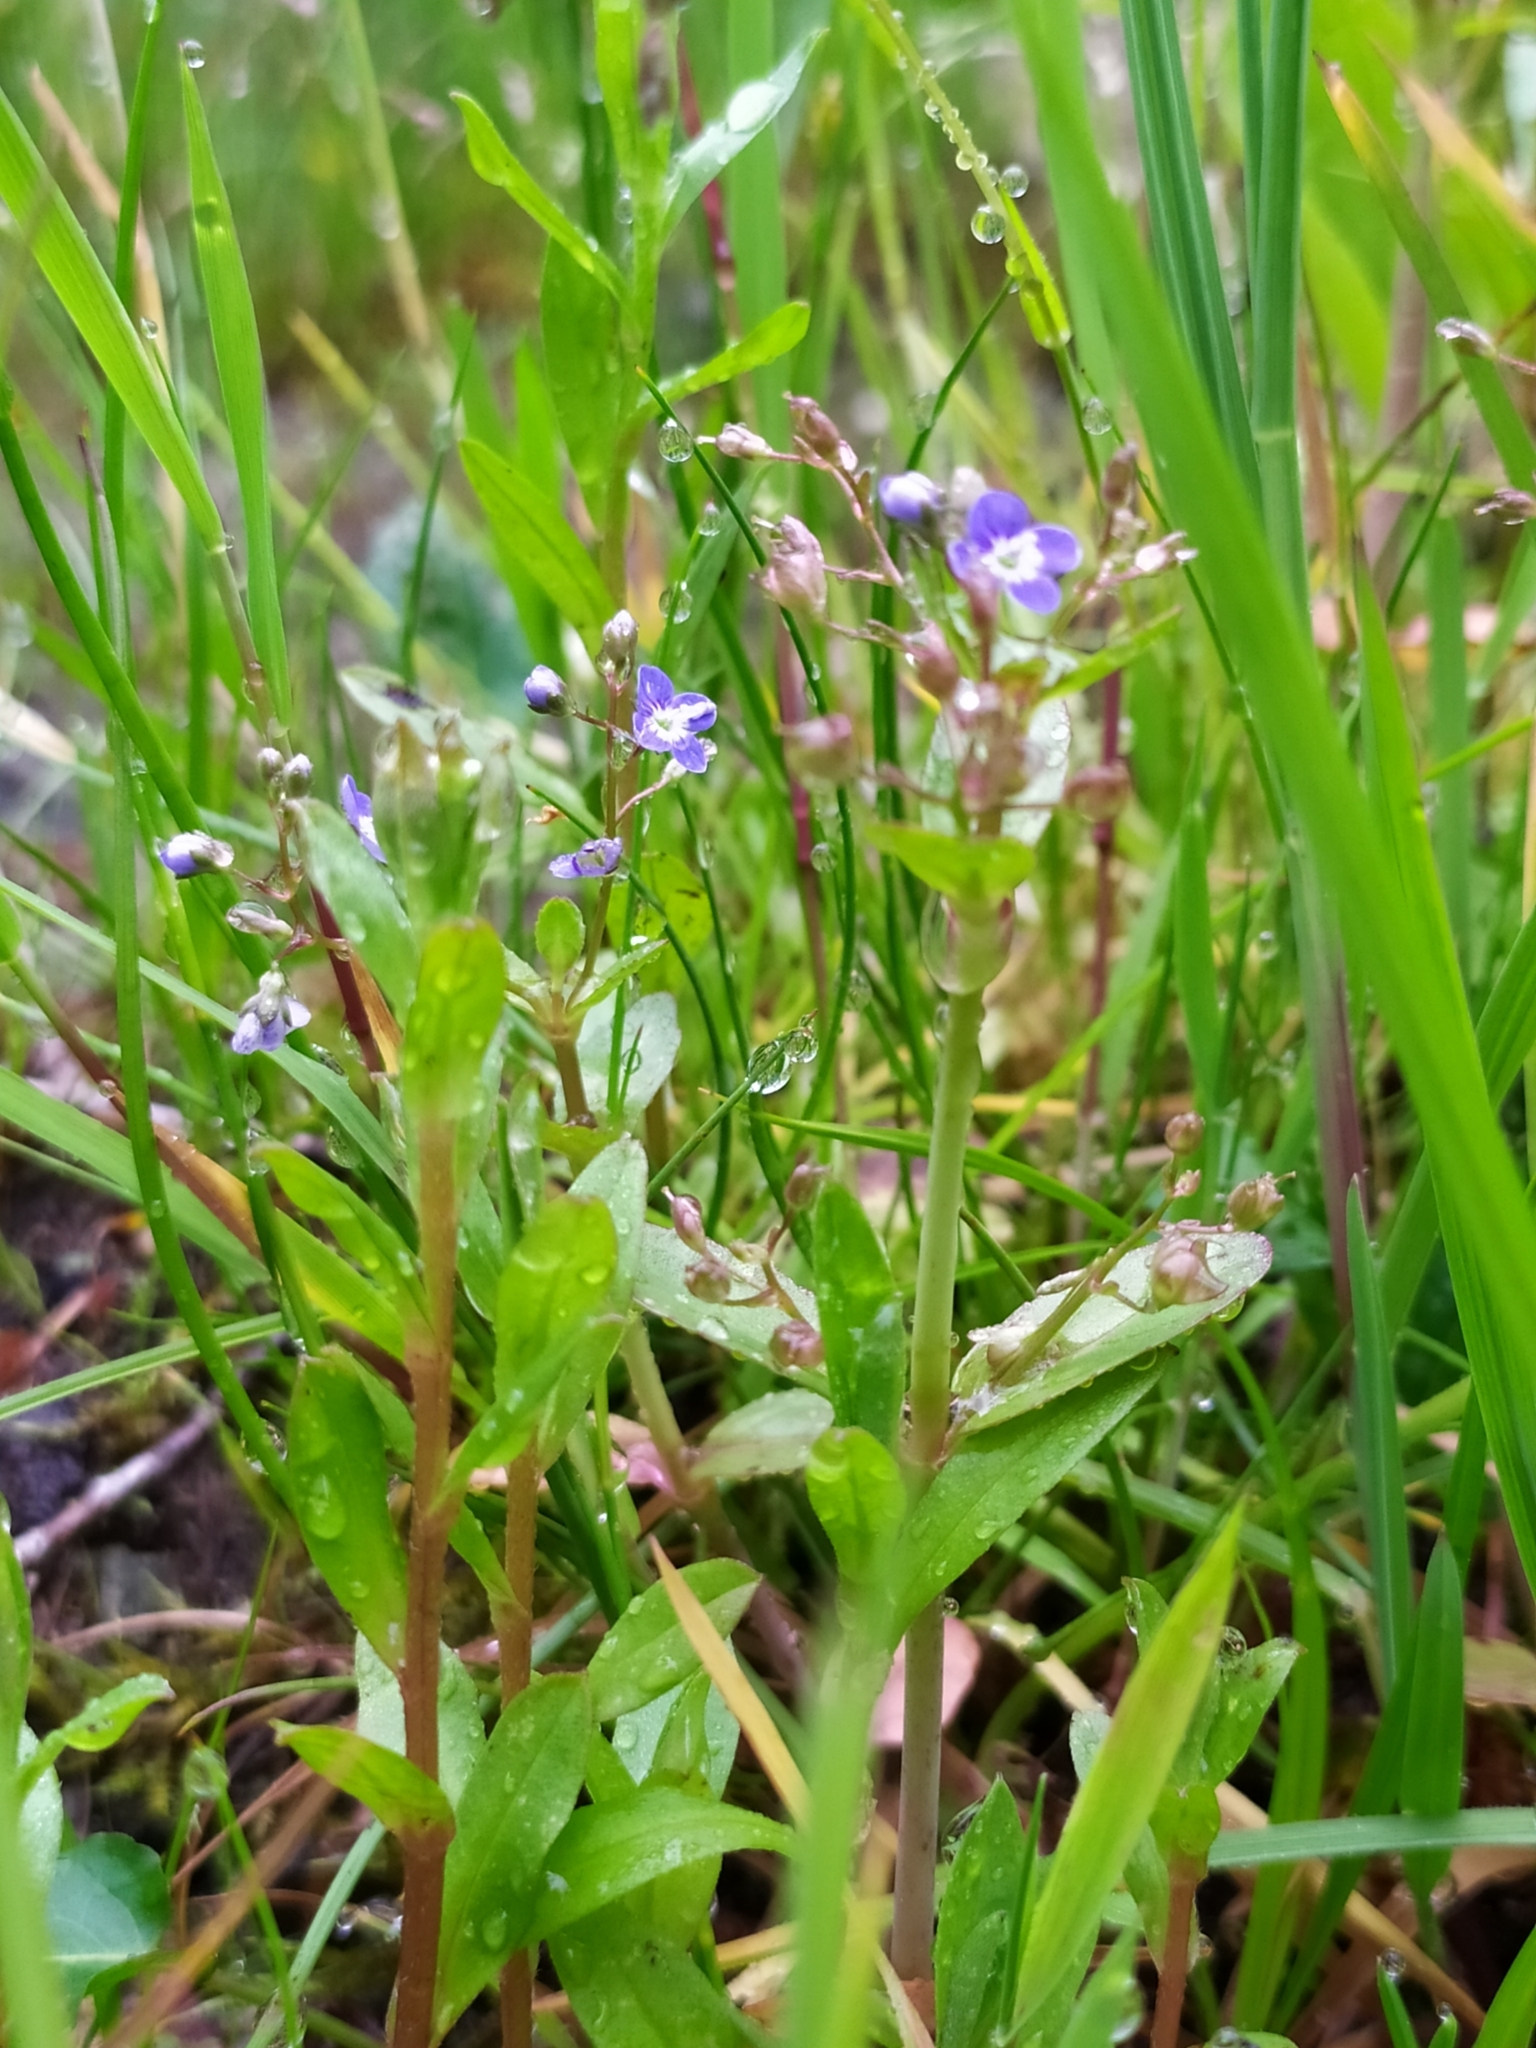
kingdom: Plantae
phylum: Tracheophyta
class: Magnoliopsida
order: Lamiales
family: Plantaginaceae
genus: Veronica
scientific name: Veronica beccabunga
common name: Brooklime
